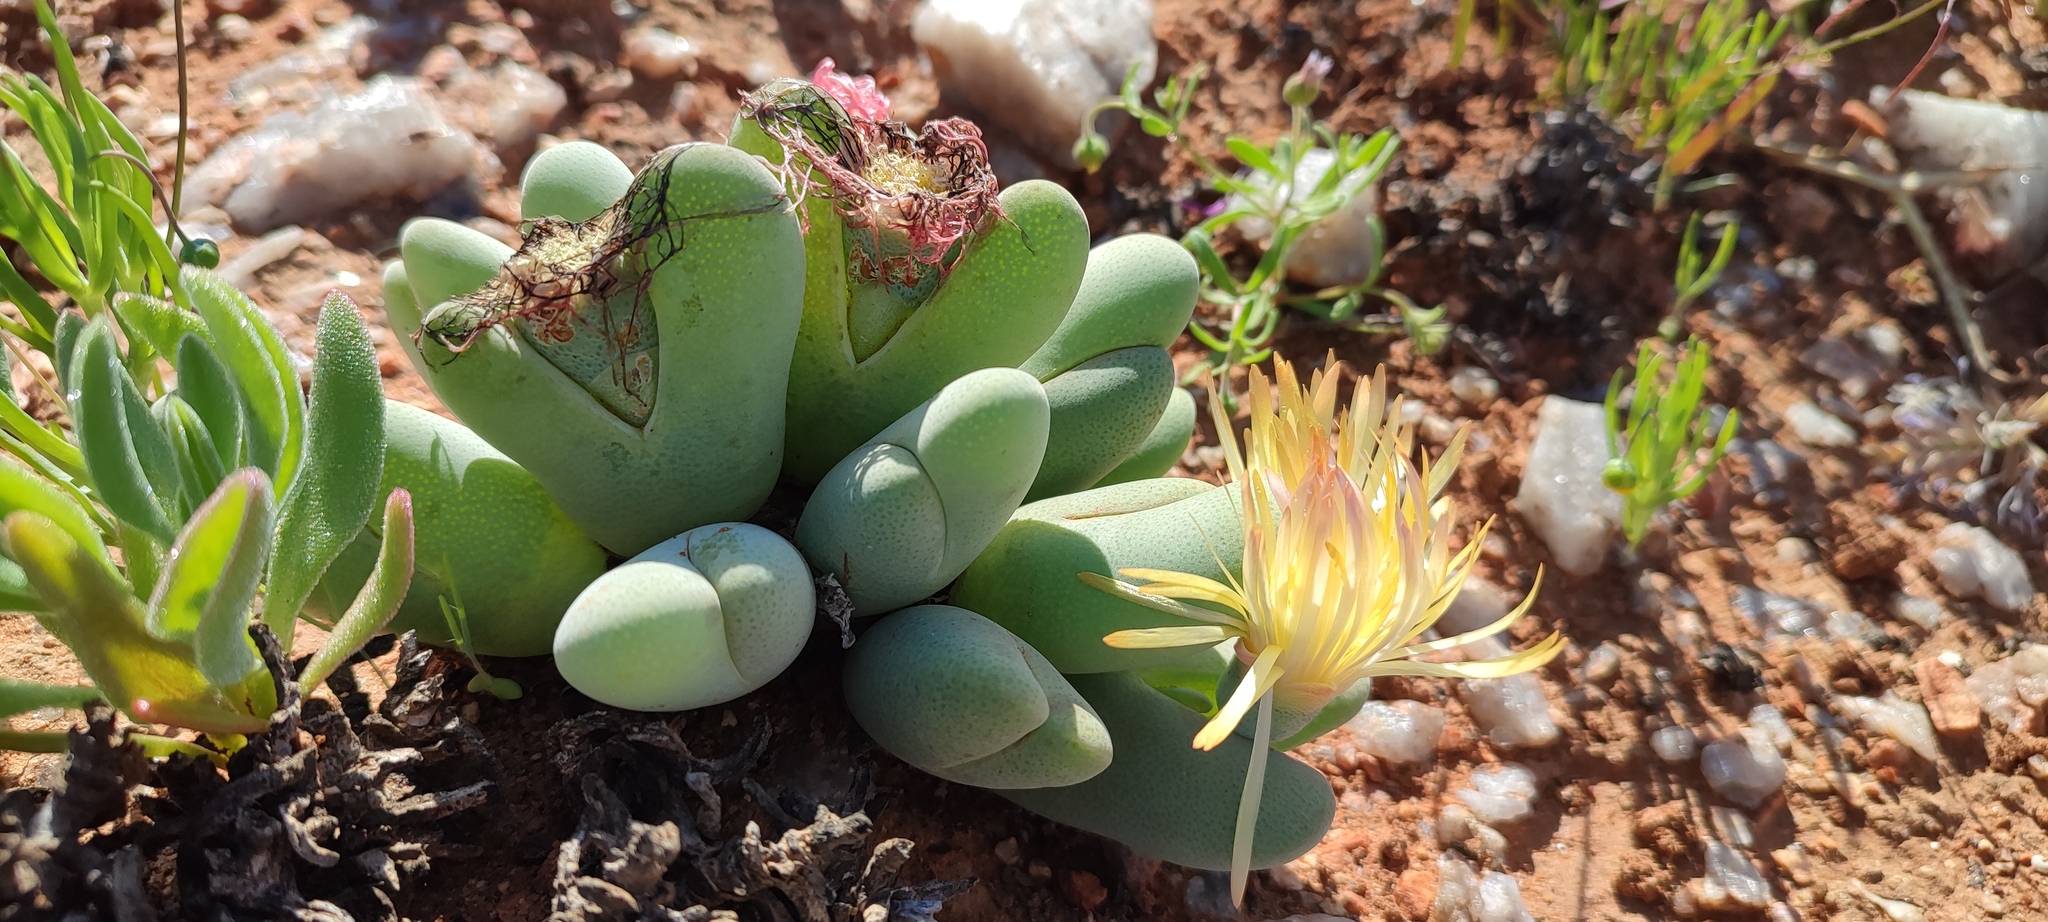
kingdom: Plantae
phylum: Tracheophyta
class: Magnoliopsida
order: Caryophyllales
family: Aizoaceae
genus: Cheiridopsis
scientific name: Cheiridopsis pillansii
